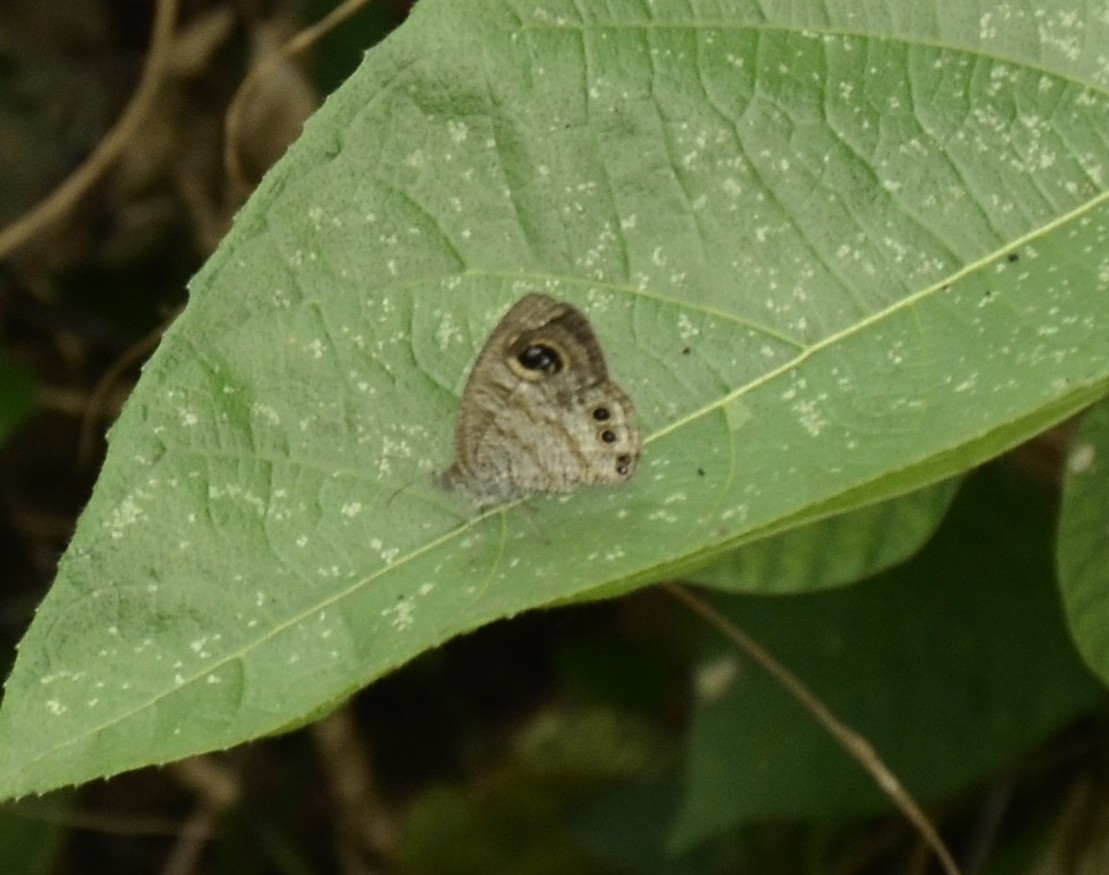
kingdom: Animalia
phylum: Arthropoda
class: Insecta
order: Lepidoptera
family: Nymphalidae
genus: Ypthima
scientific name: Ypthima baldus
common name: Common five-ring
